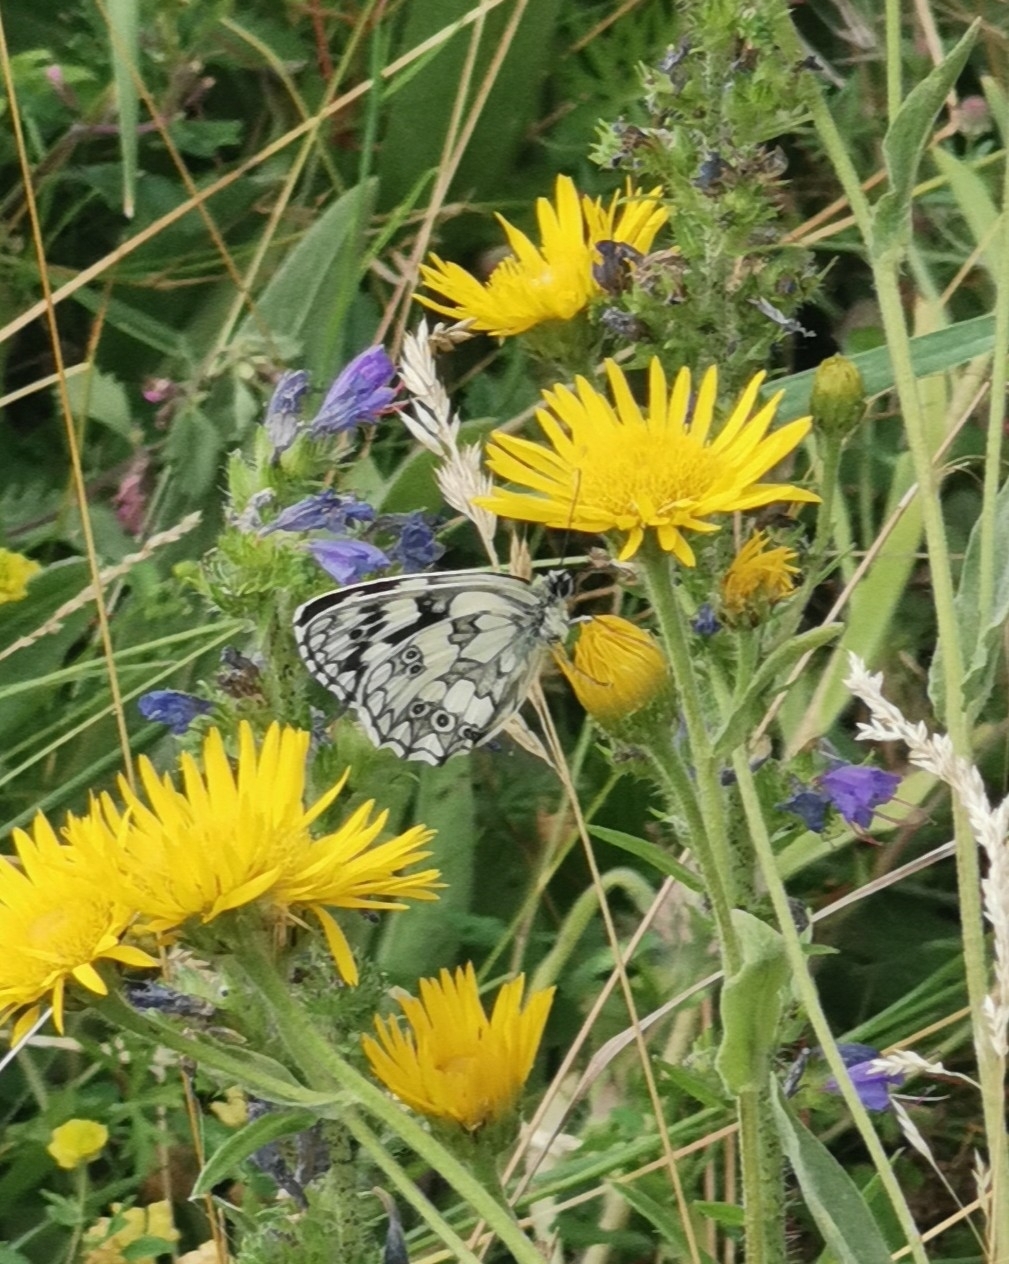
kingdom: Animalia
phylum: Arthropoda
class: Insecta
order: Lepidoptera
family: Nymphalidae
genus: Melanargia
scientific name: Melanargia galathea
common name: Marbled white
